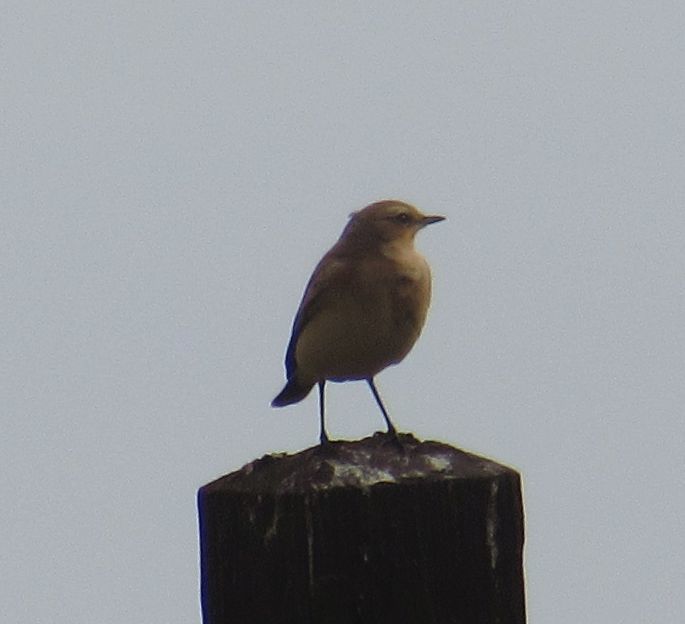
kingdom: Animalia
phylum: Chordata
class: Aves
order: Passeriformes
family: Muscicapidae
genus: Oenanthe
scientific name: Oenanthe oenanthe
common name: Northern wheatear
